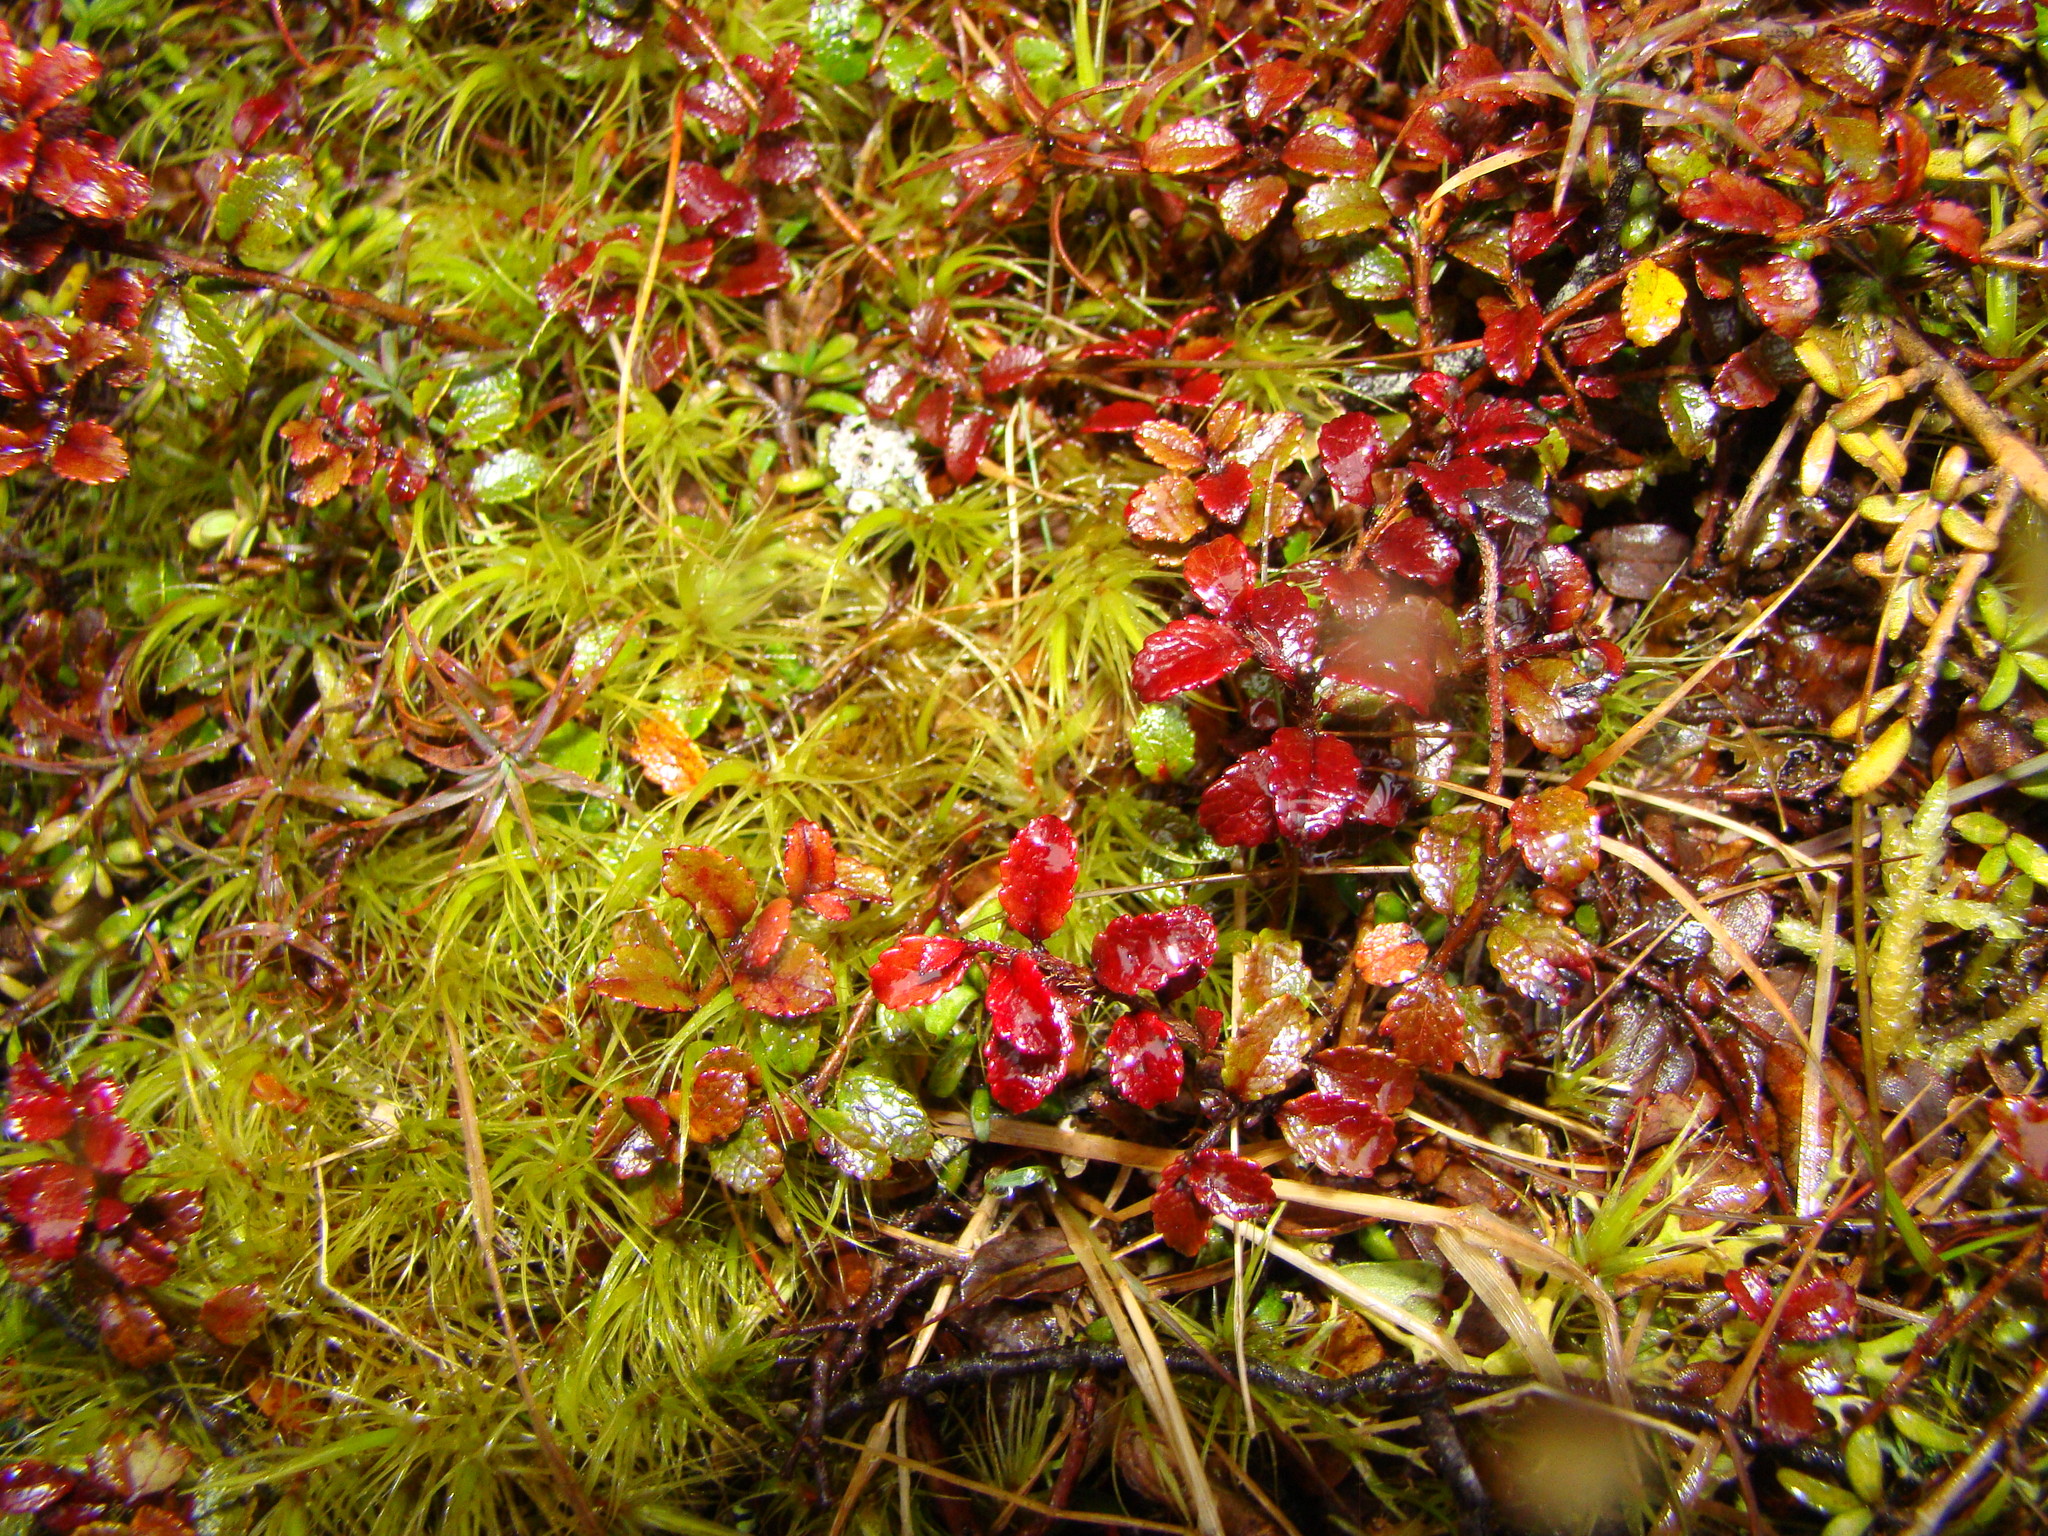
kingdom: Plantae
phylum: Tracheophyta
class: Magnoliopsida
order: Ericales
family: Ericaceae
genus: Gaultheria
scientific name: Gaultheria depressa
